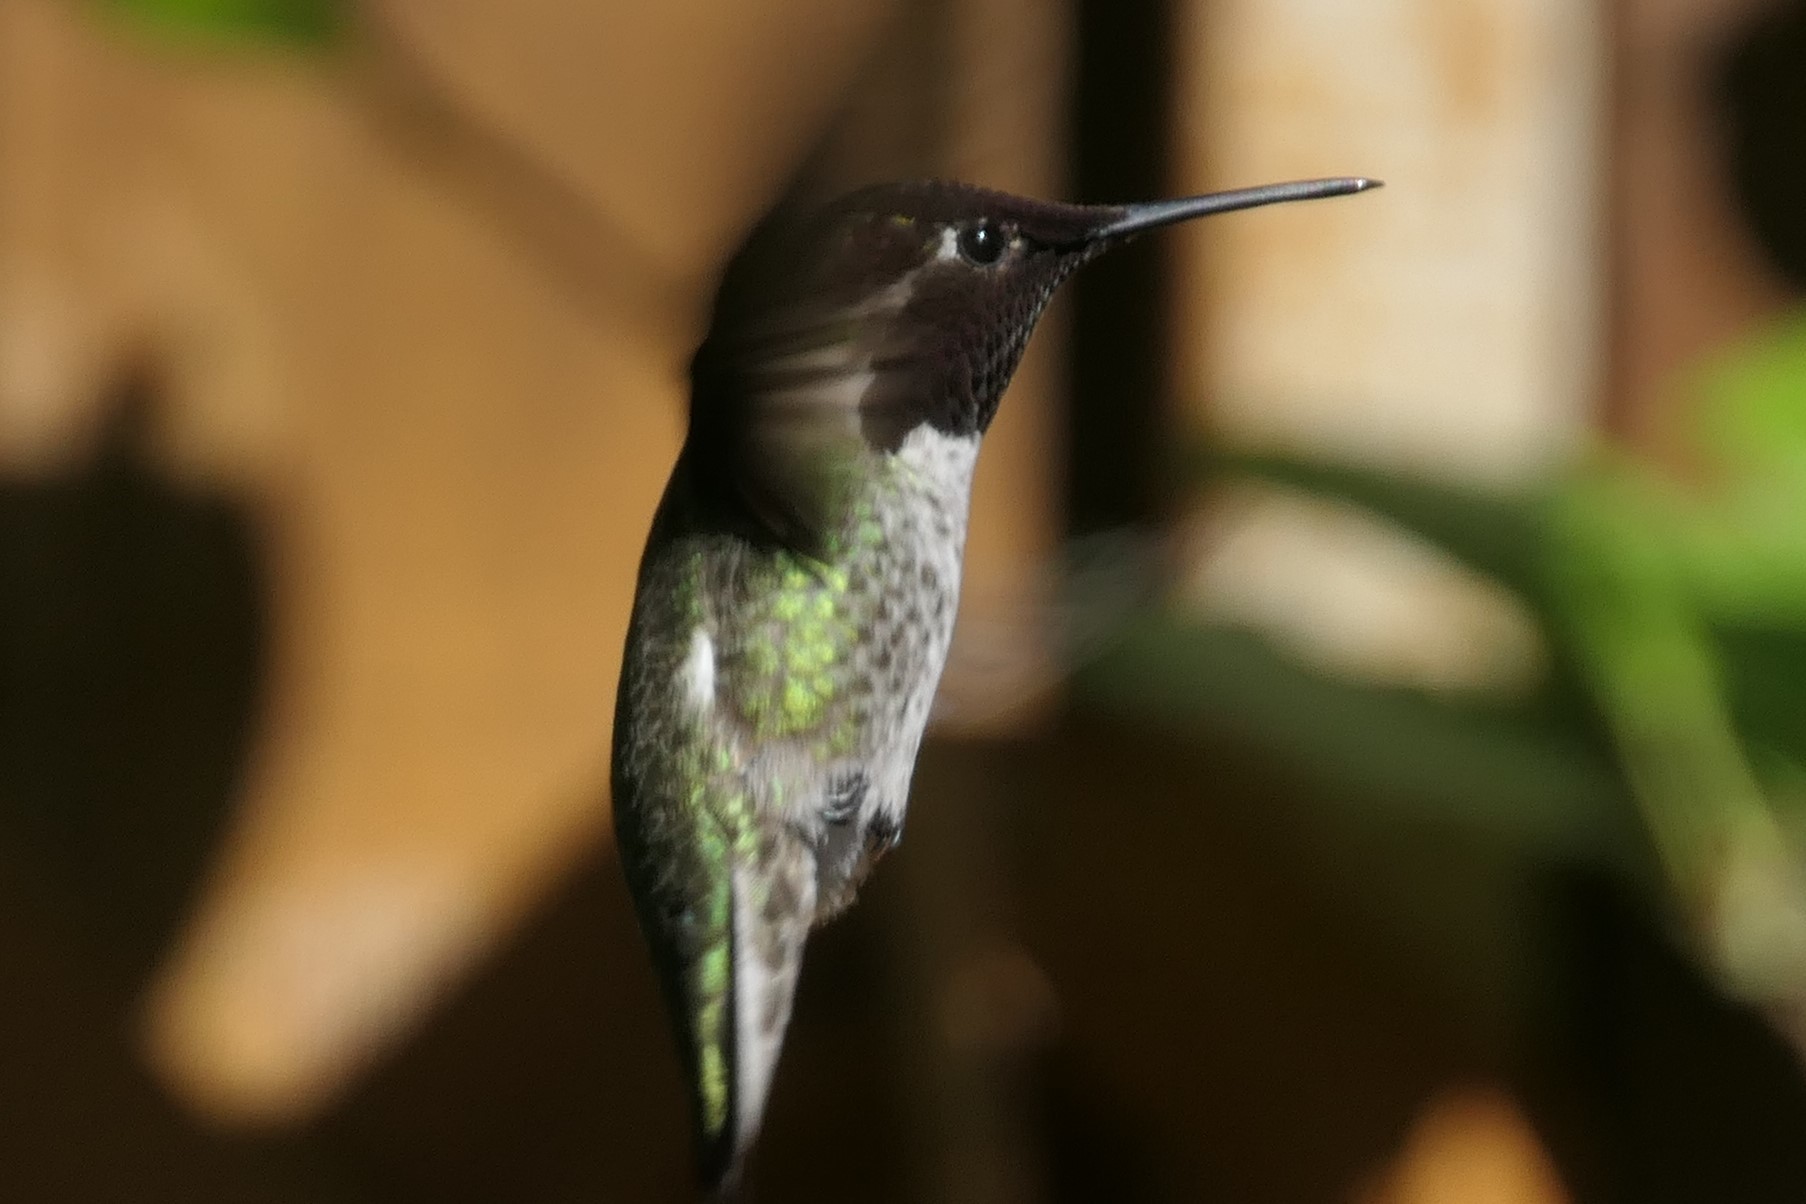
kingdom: Animalia
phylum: Chordata
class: Aves
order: Apodiformes
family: Trochilidae
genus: Calypte
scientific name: Calypte anna
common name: Anna's hummingbird
